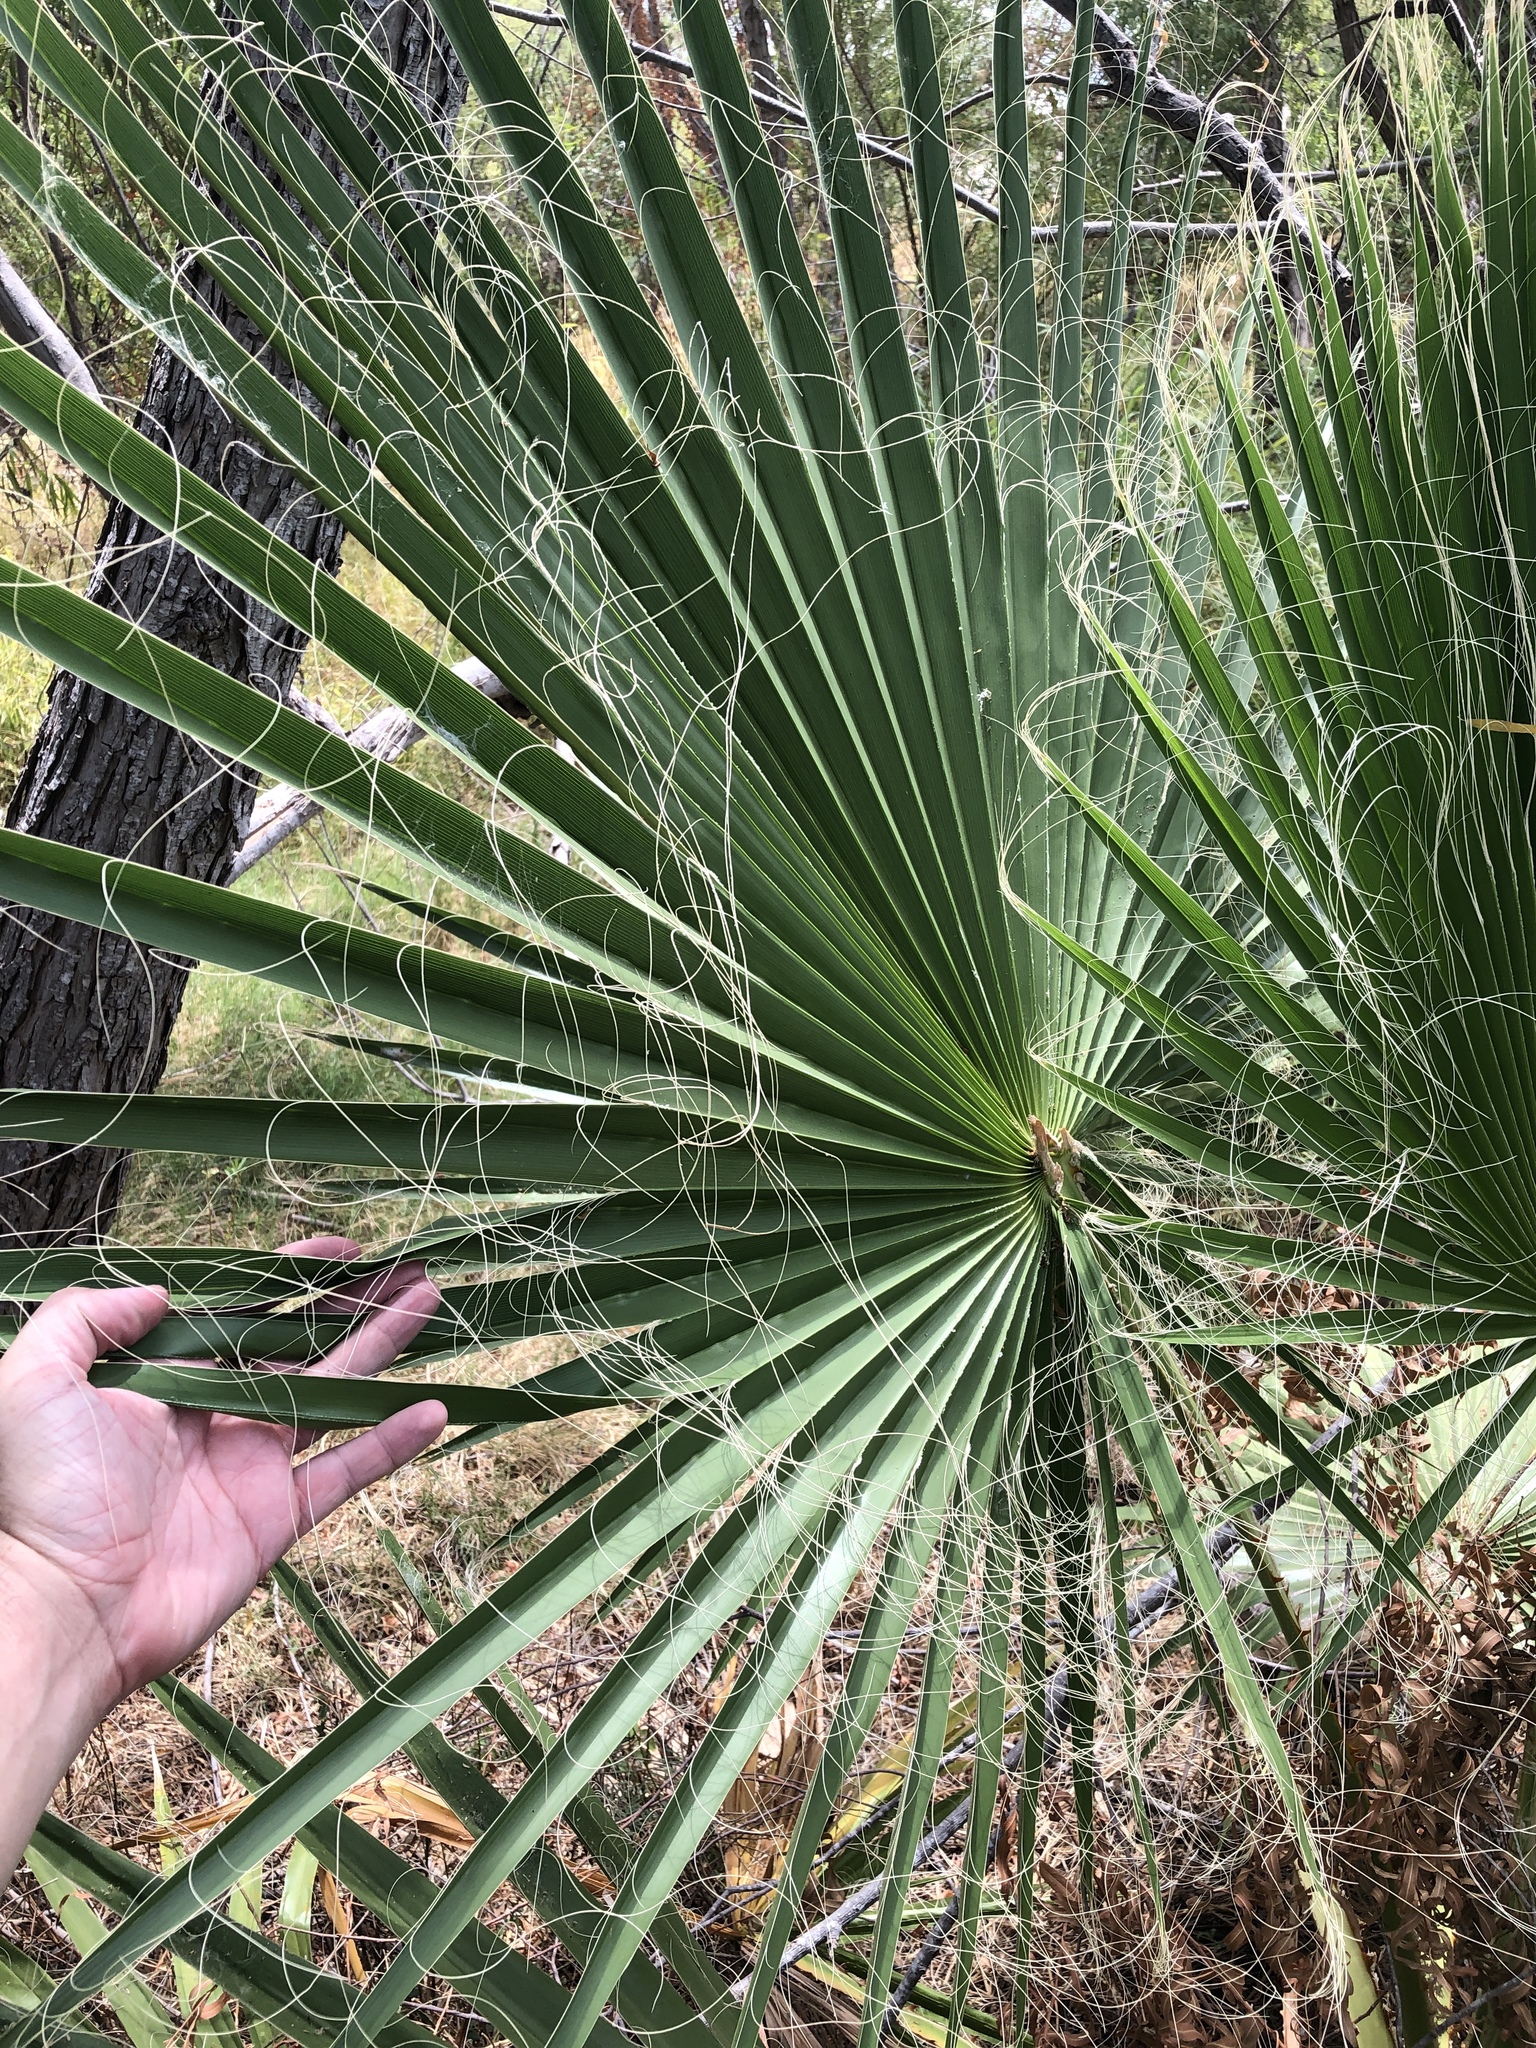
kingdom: Plantae
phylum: Tracheophyta
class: Liliopsida
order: Arecales
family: Arecaceae
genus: Washingtonia
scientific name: Washingtonia robusta
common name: Mexican fan palm
